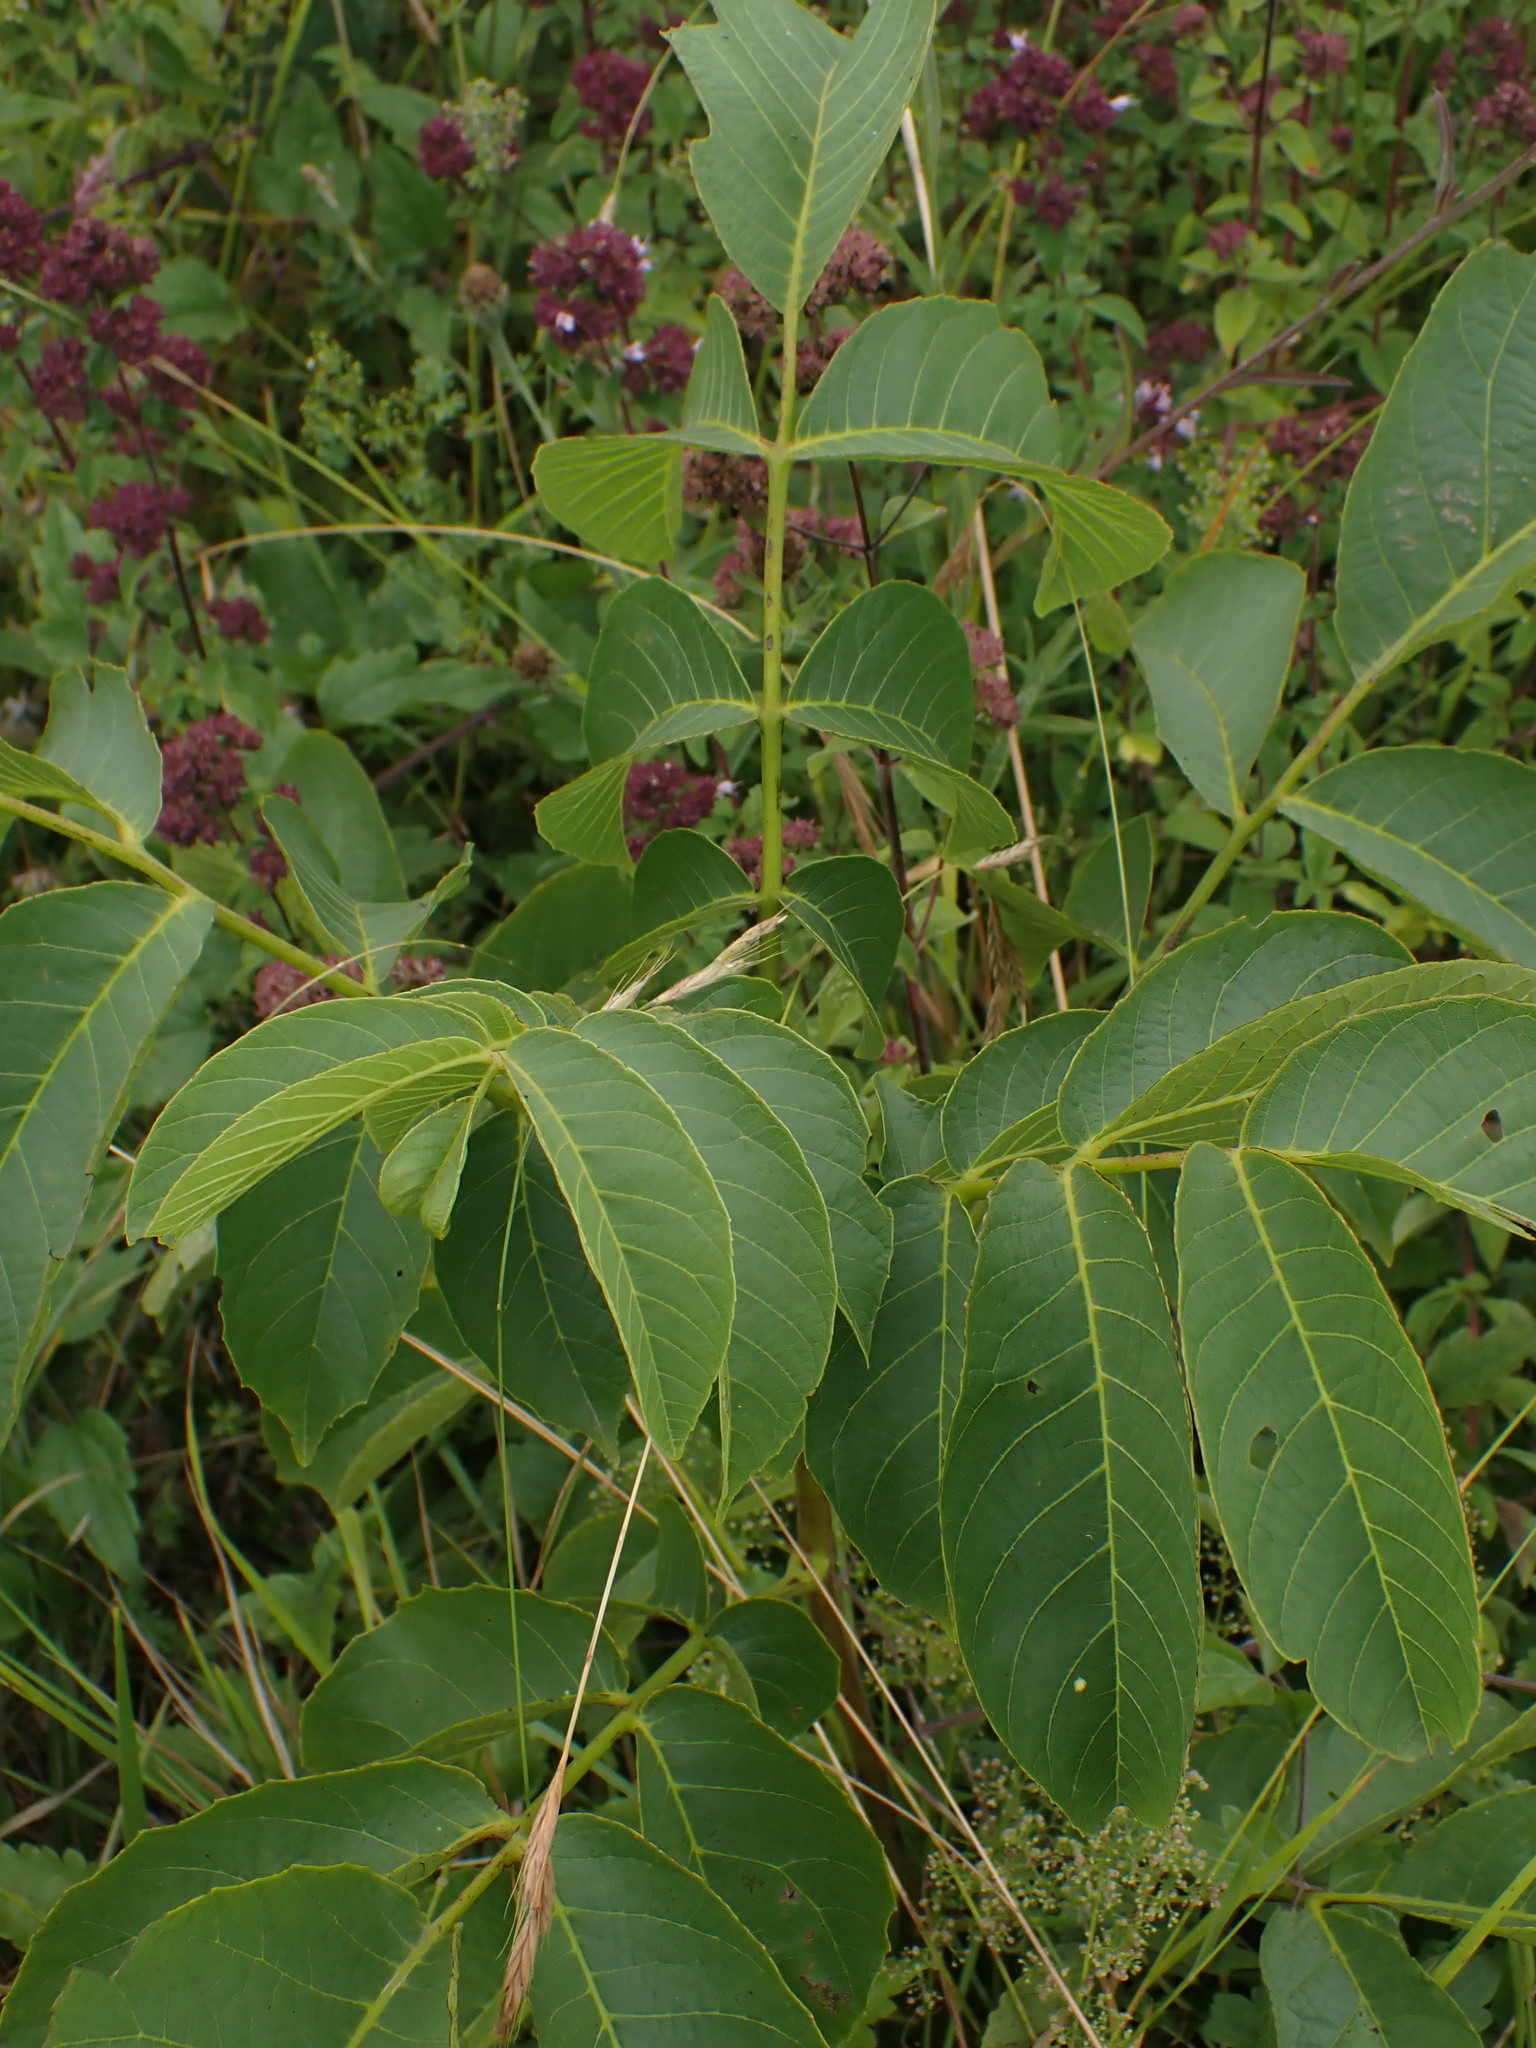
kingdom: Plantae
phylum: Tracheophyta
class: Magnoliopsida
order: Fagales
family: Juglandaceae
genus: Juglans
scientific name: Juglans regia
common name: Walnut
